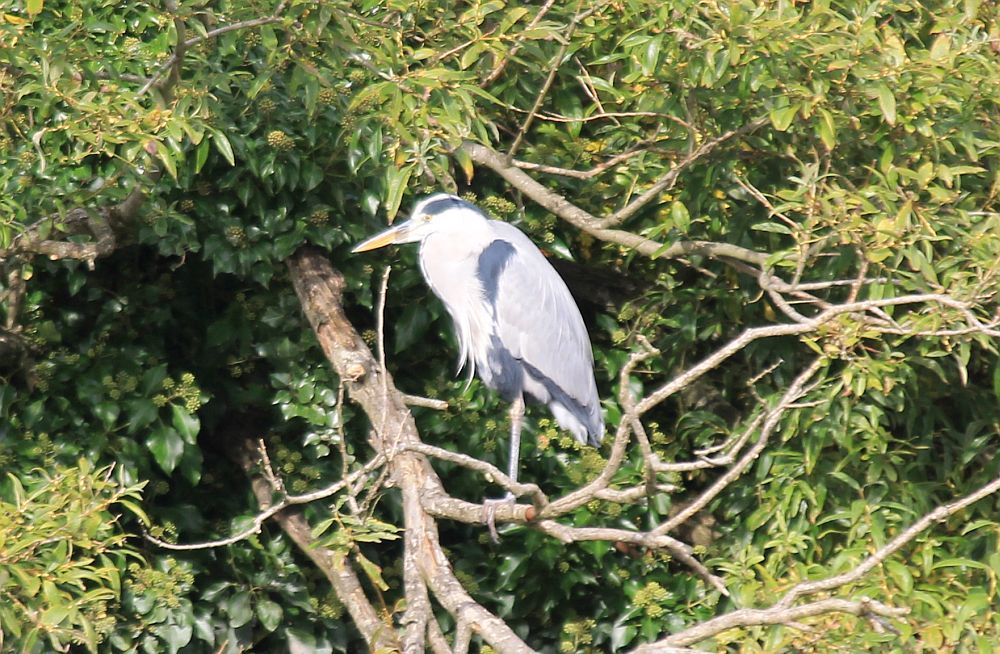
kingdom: Animalia
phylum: Chordata
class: Aves
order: Pelecaniformes
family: Ardeidae
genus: Ardea
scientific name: Ardea cinerea
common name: Grey heron
